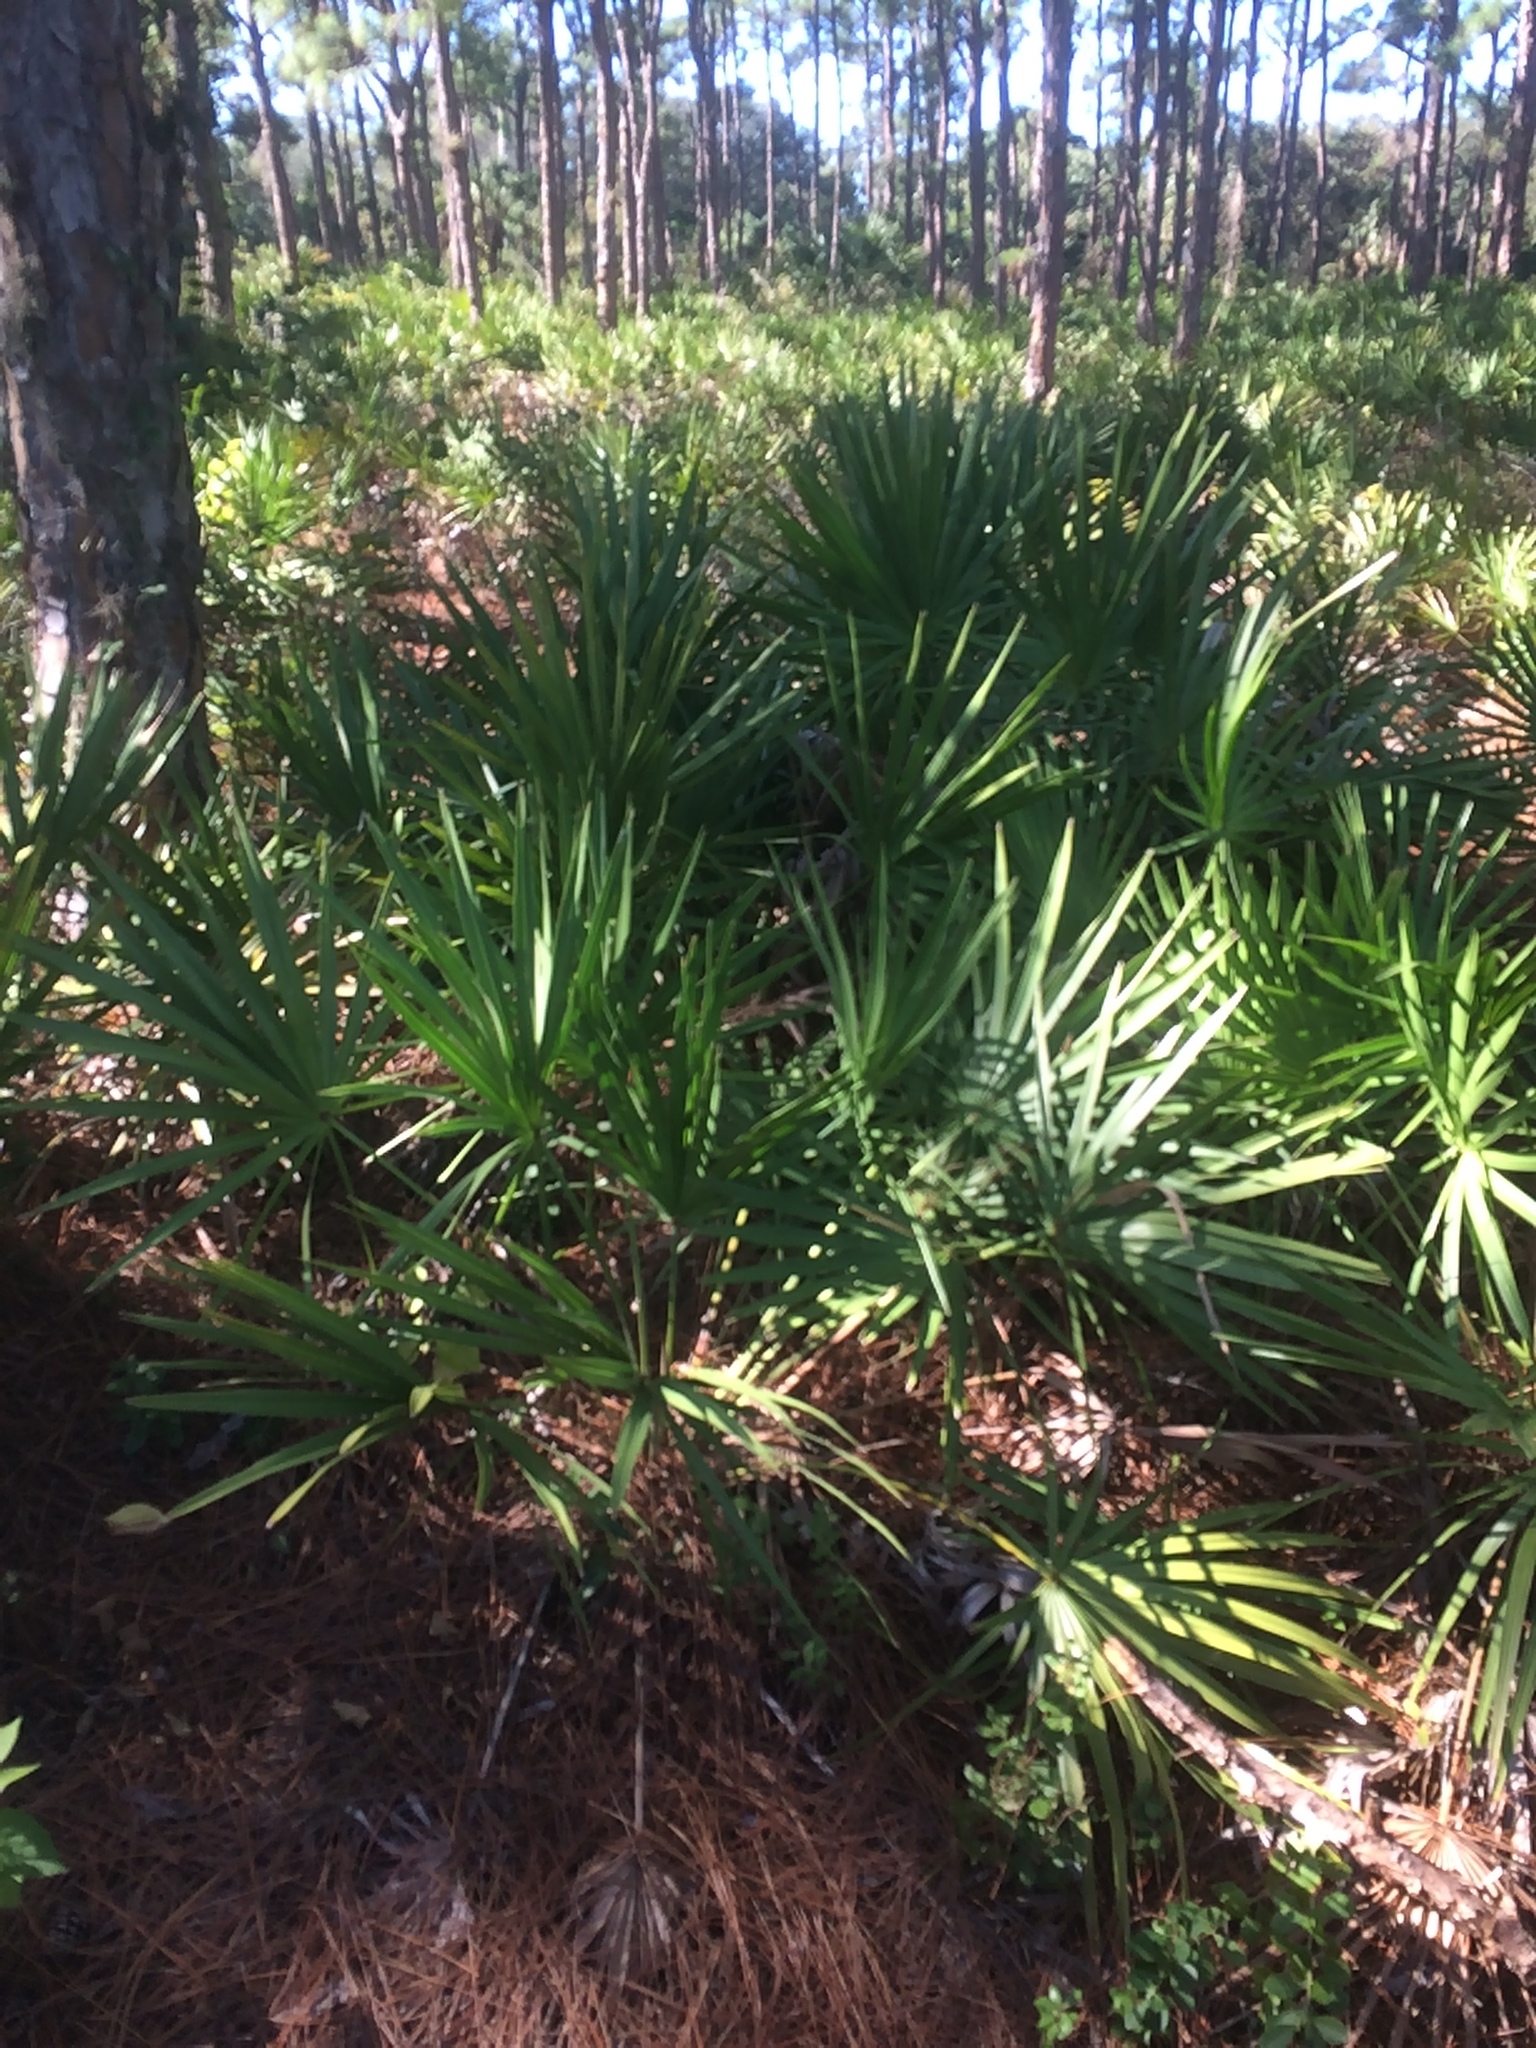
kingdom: Plantae
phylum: Tracheophyta
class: Liliopsida
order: Arecales
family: Arecaceae
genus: Serenoa
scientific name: Serenoa repens
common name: Saw-palmetto
